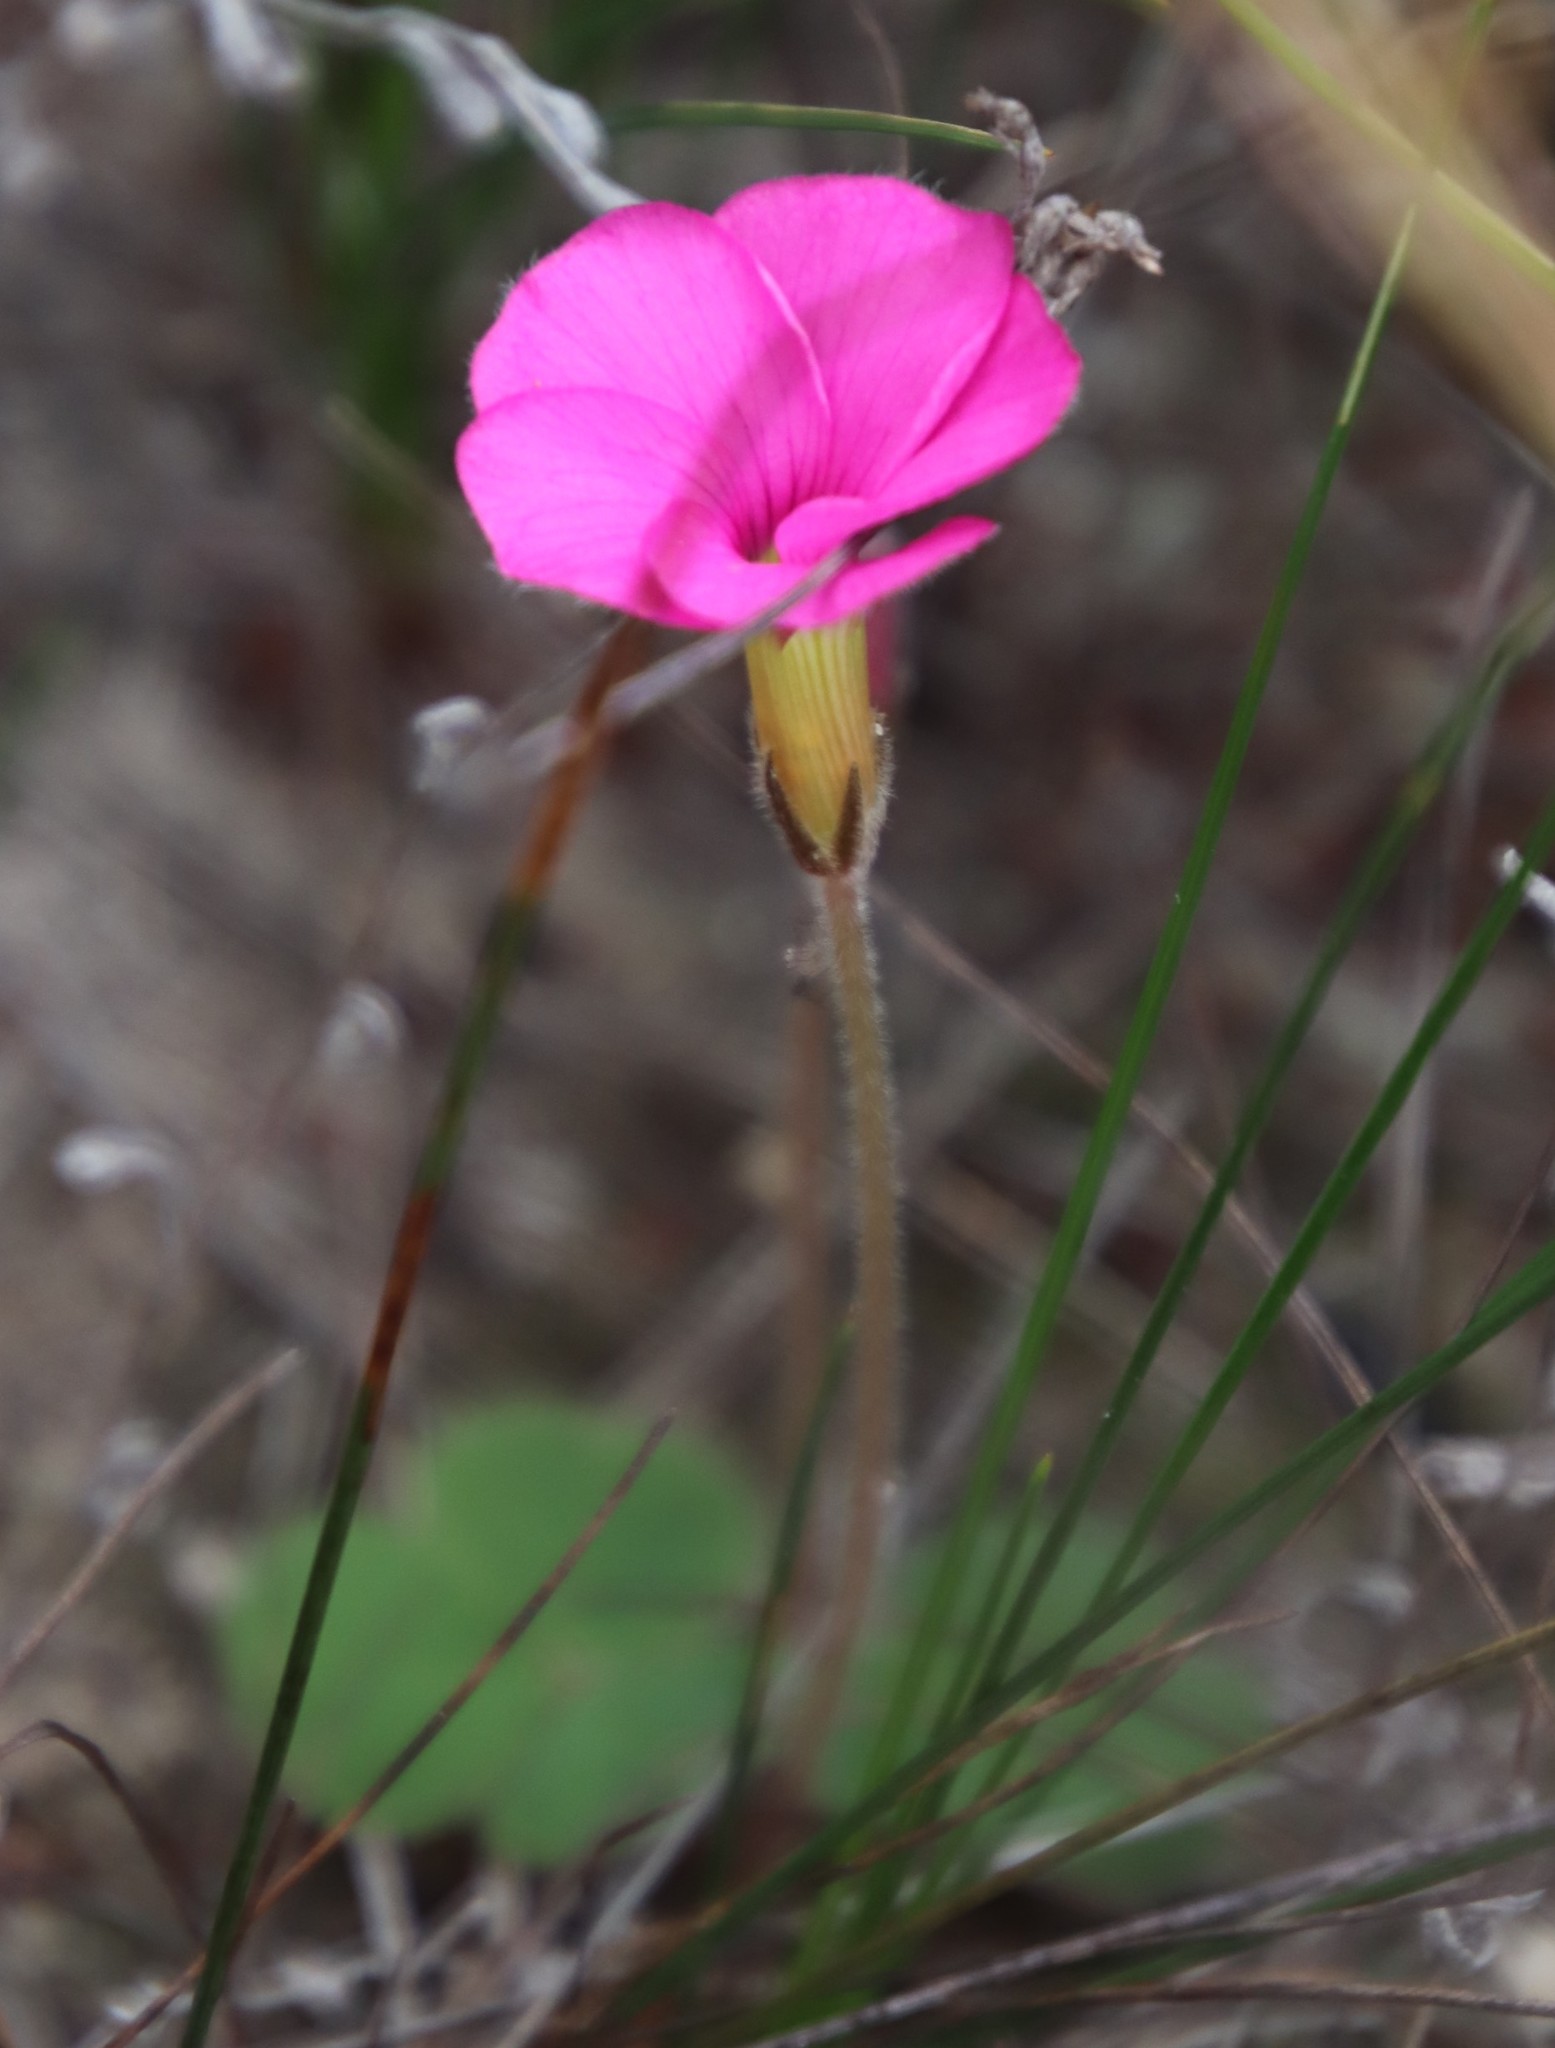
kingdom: Plantae
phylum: Tracheophyta
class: Magnoliopsida
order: Oxalidales
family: Oxalidaceae
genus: Oxalis
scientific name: Oxalis eckloniana
